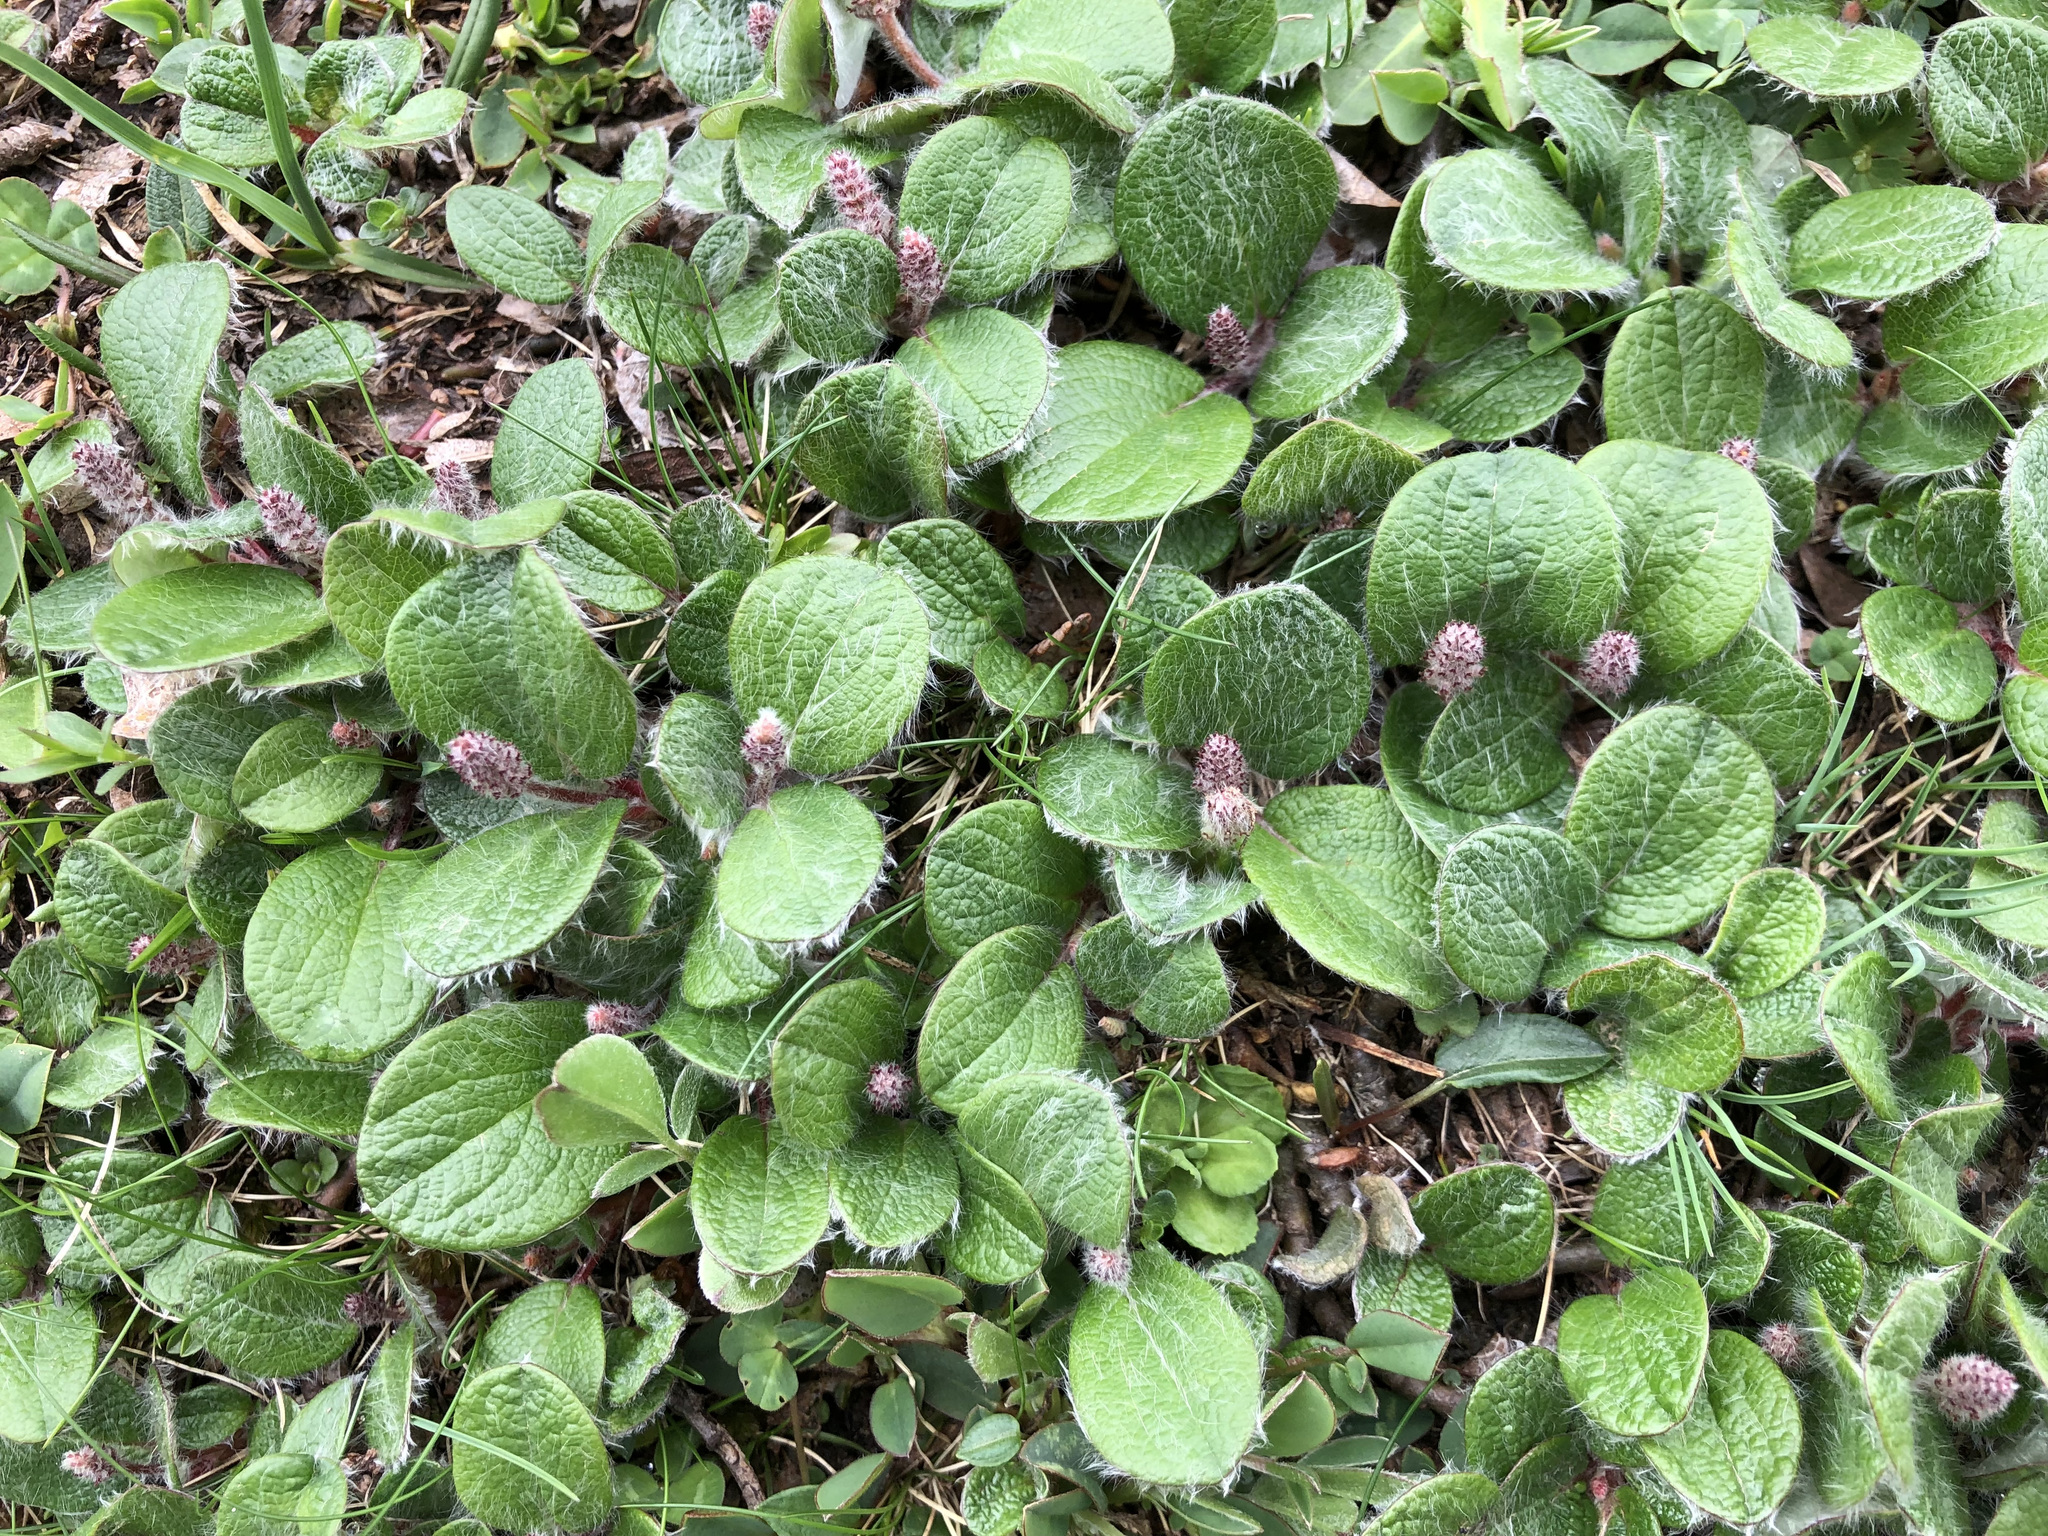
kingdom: Plantae
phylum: Tracheophyta
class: Magnoliopsida
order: Malpighiales
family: Salicaceae
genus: Salix
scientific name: Salix reticulata
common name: Net-leaved willow
